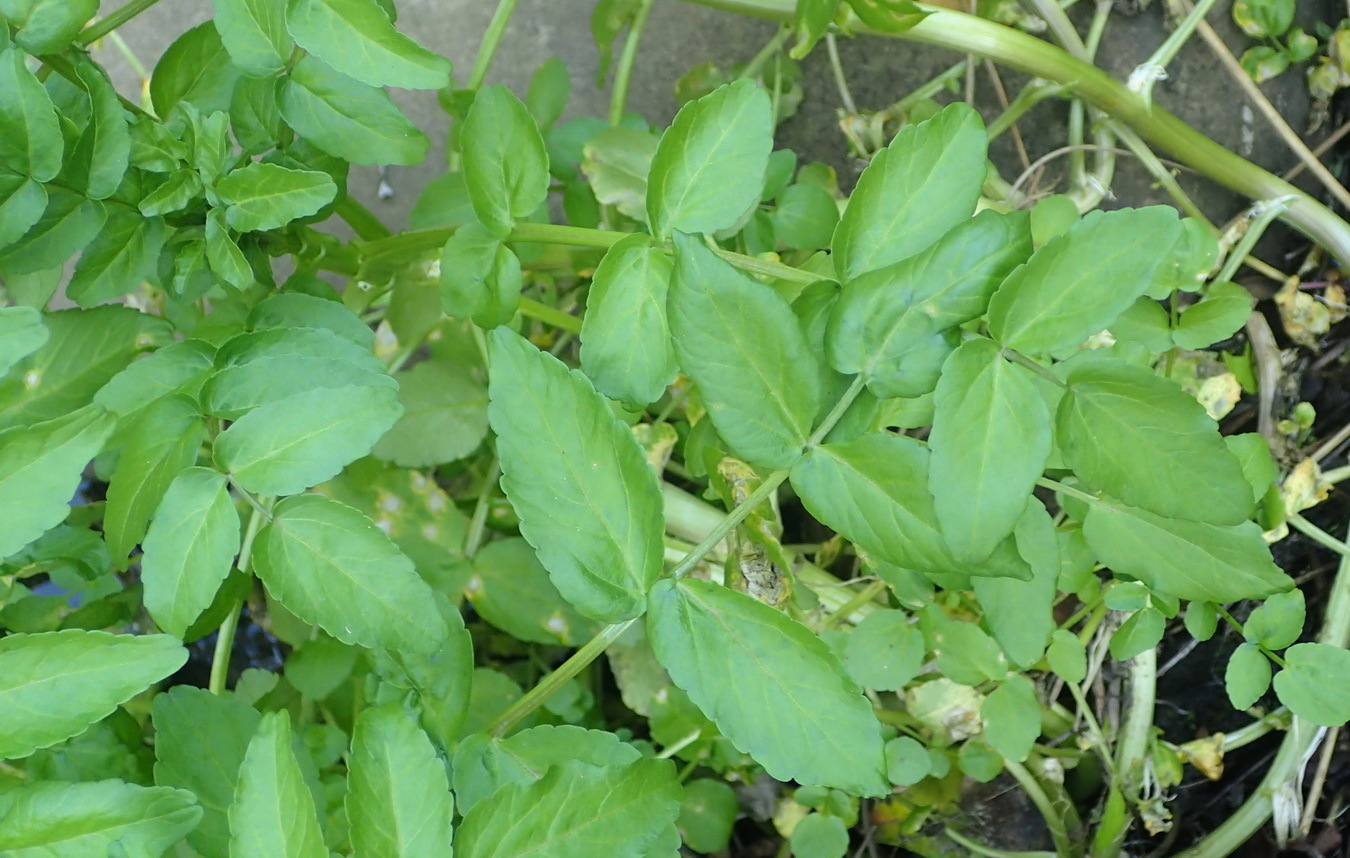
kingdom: Plantae
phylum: Tracheophyta
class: Magnoliopsida
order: Brassicales
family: Brassicaceae
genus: Nasturtium
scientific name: Nasturtium officinale
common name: Watercress
